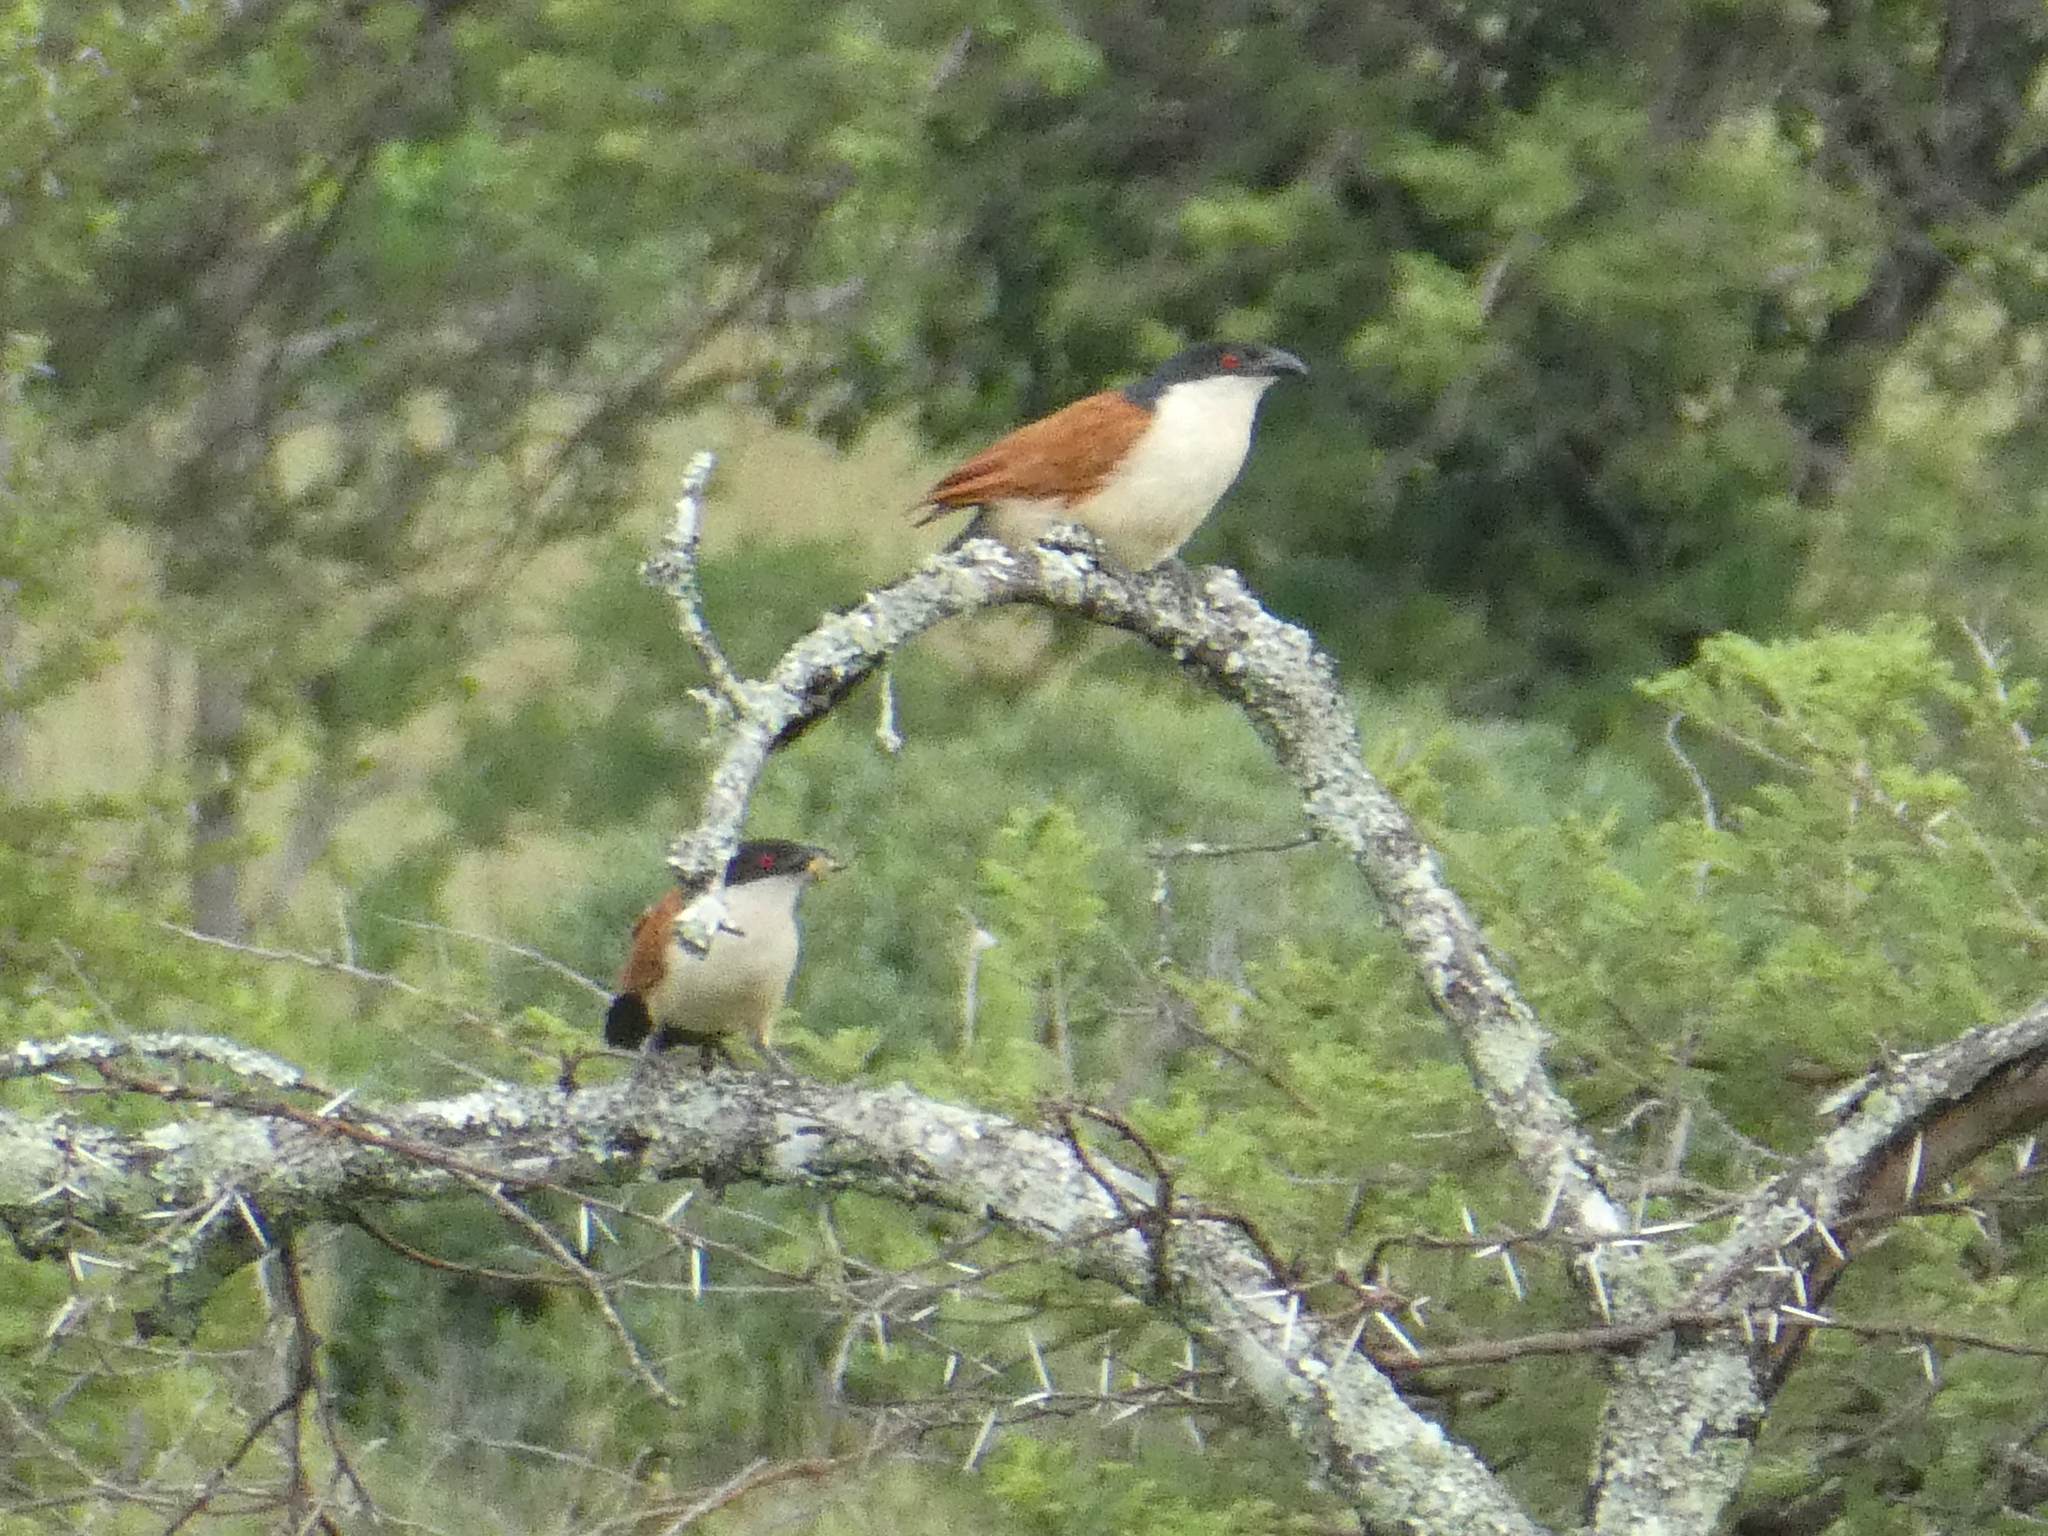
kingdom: Animalia
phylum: Chordata
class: Aves
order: Cuculiformes
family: Cuculidae
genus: Centropus
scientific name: Centropus senegalensis
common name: Senegal coucal
